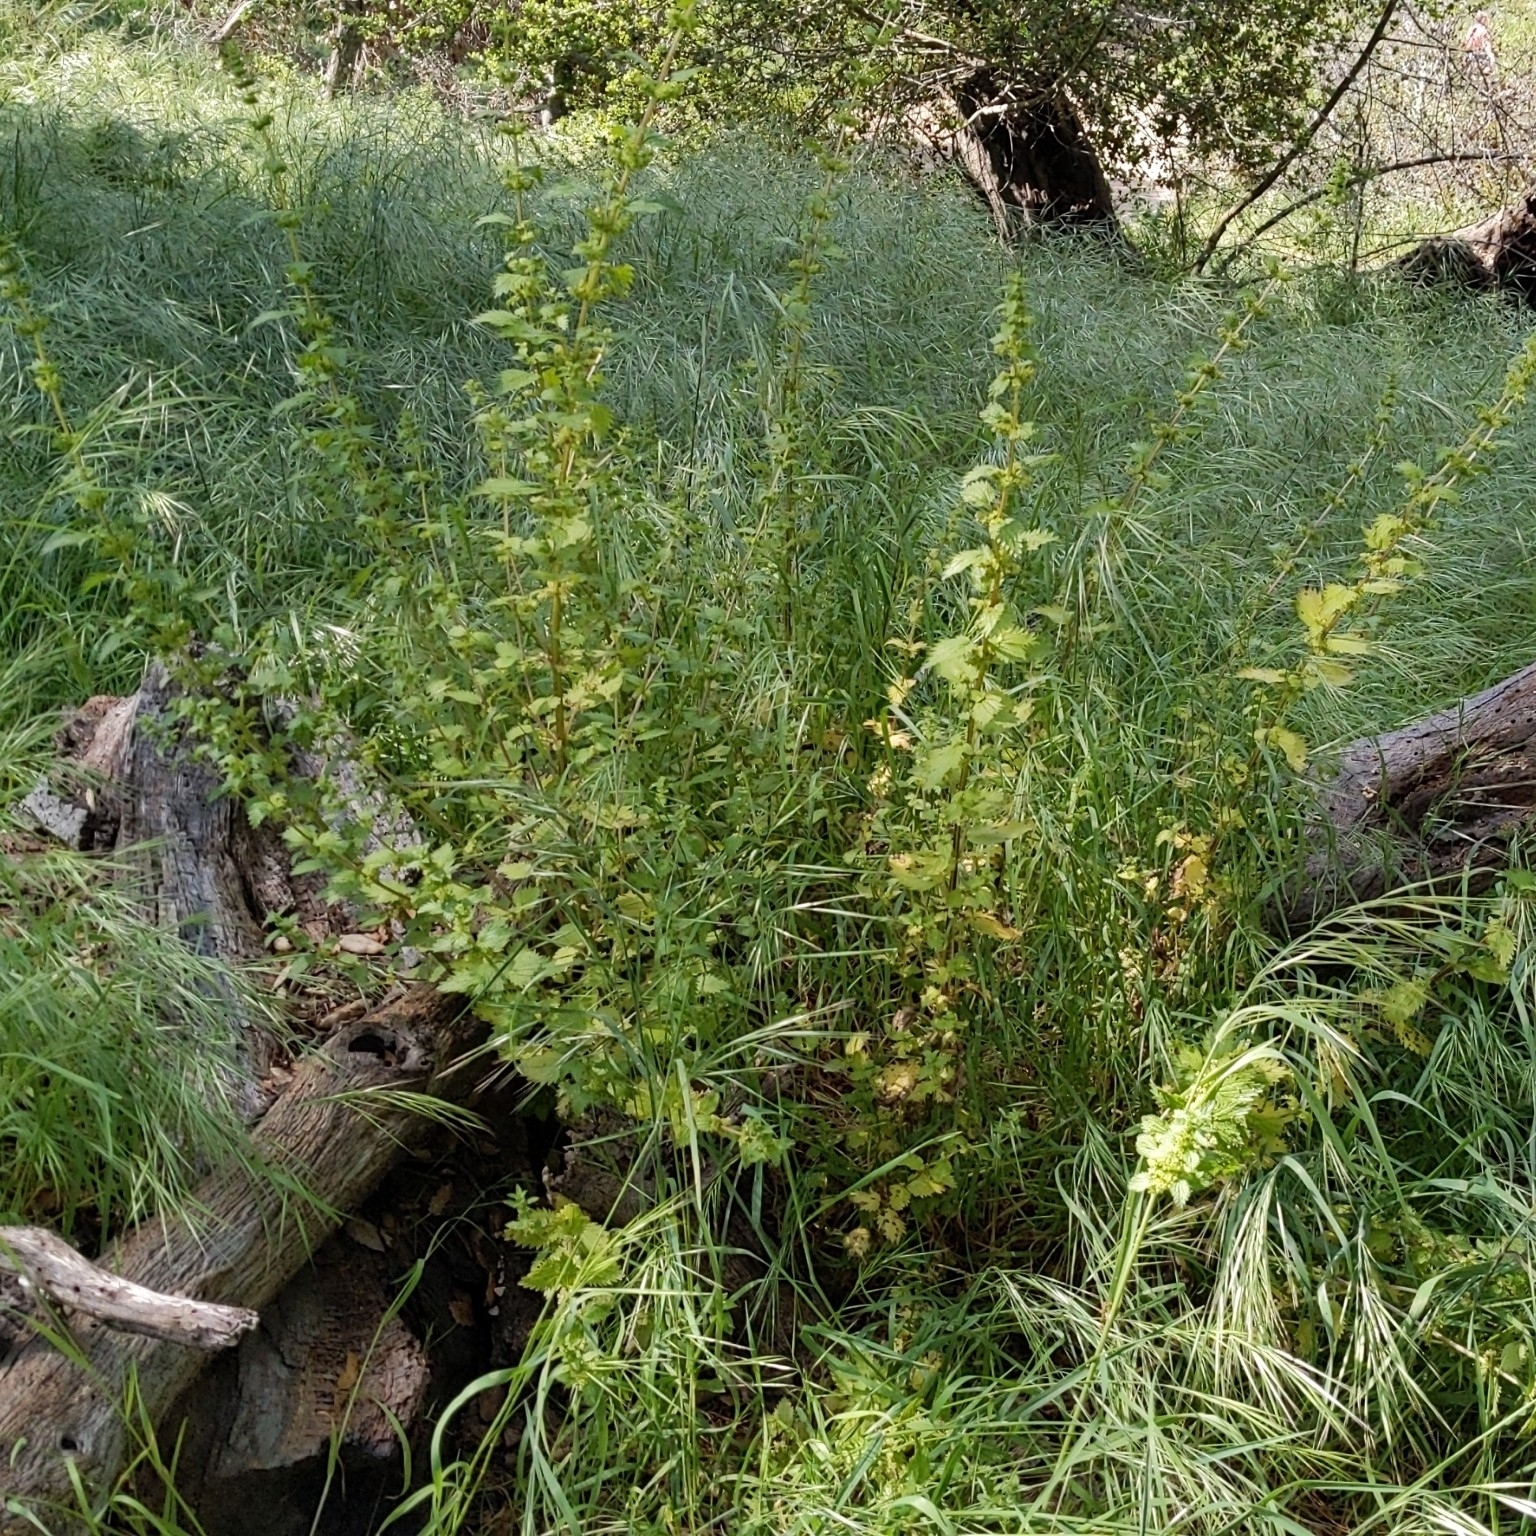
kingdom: Plantae
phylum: Tracheophyta
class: Magnoliopsida
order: Rosales
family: Urticaceae
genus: Urtica
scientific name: Urtica urens
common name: Dwarf nettle
